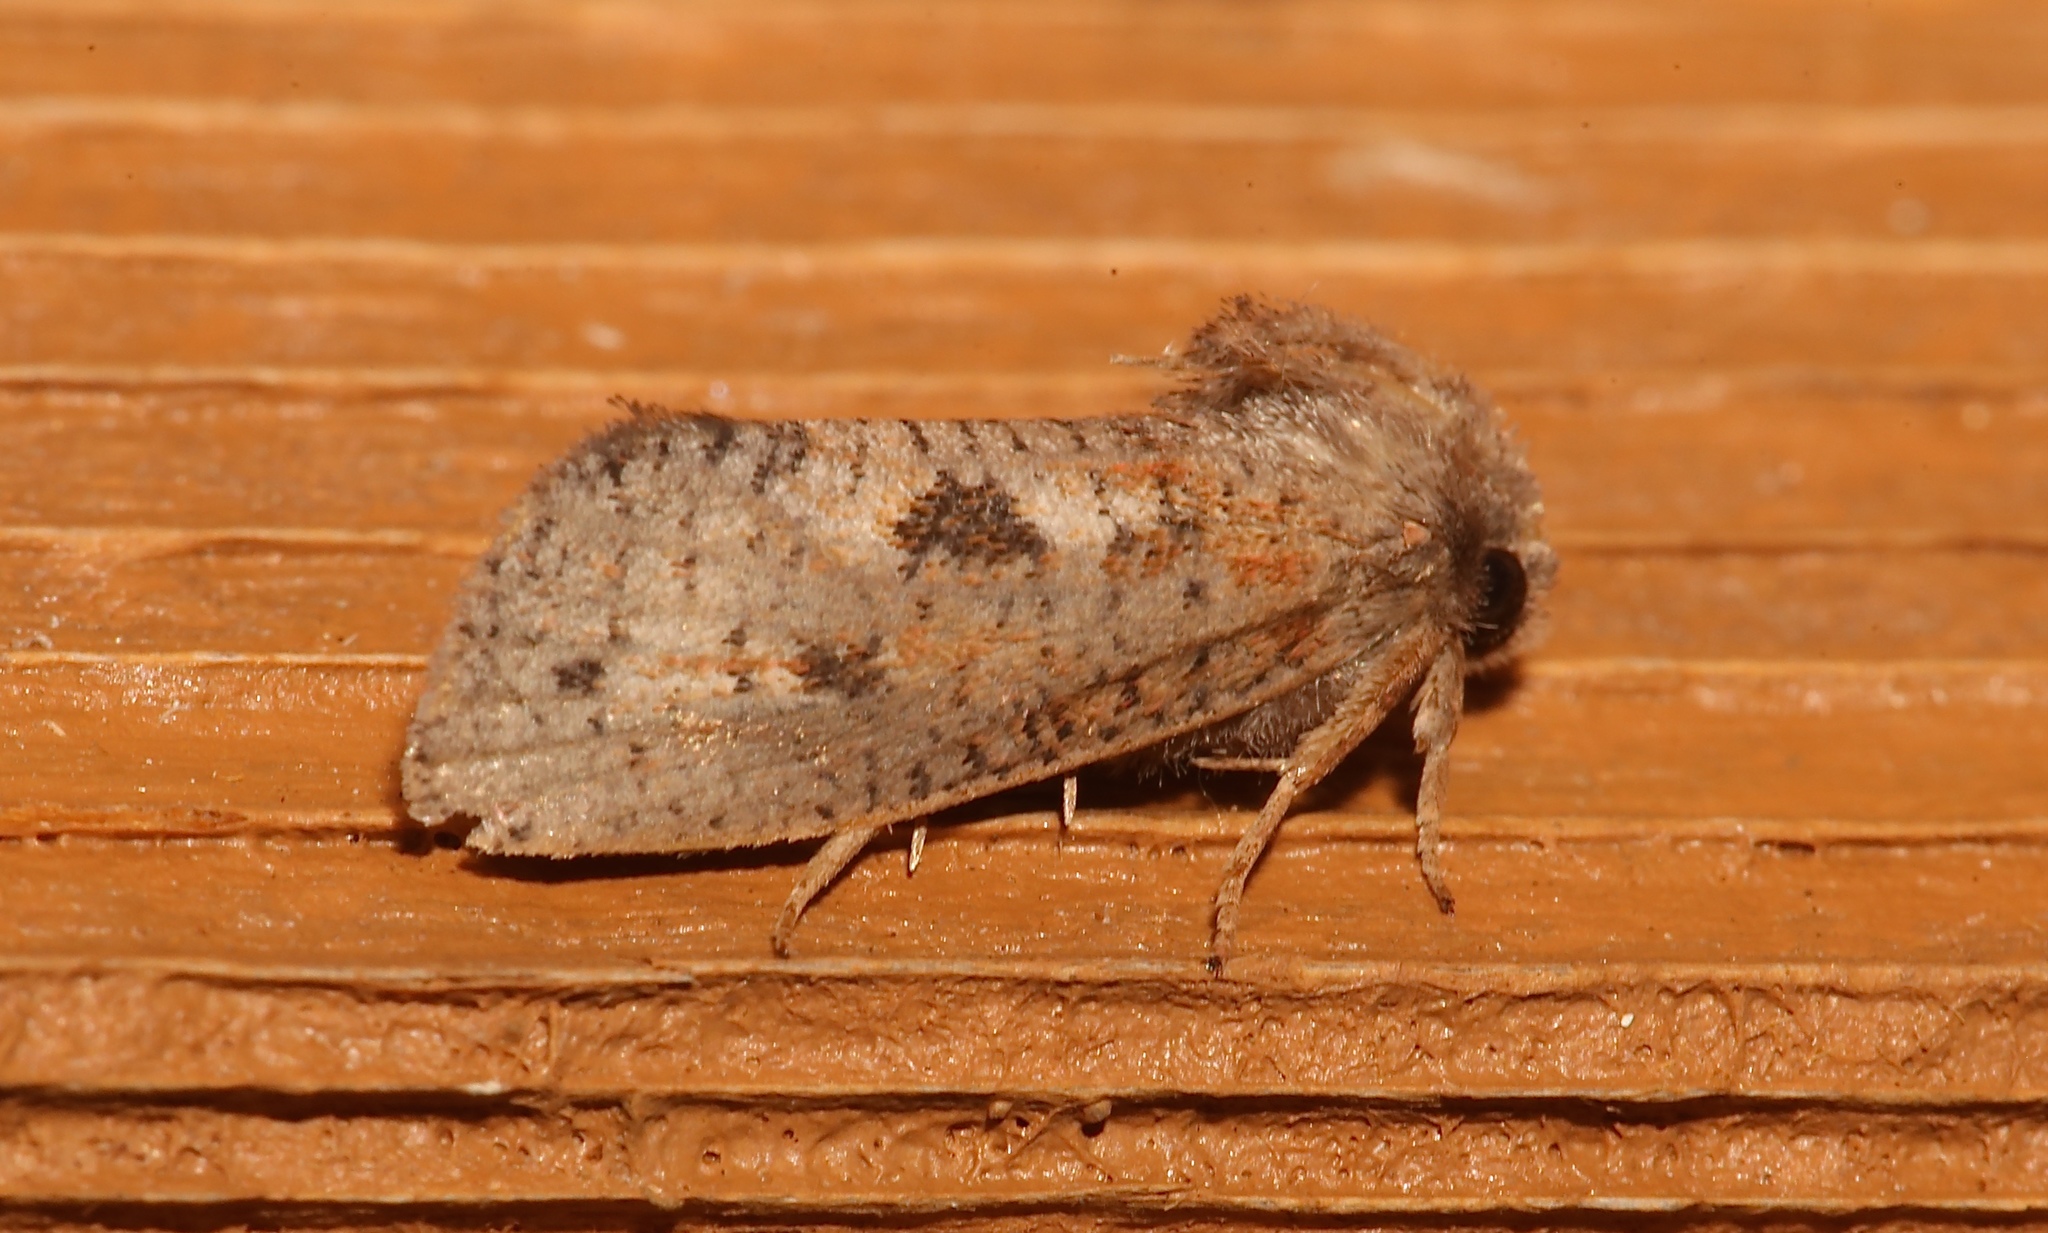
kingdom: Animalia
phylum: Arthropoda
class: Insecta
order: Lepidoptera
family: Tineidae
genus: Acrolophus
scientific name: Acrolophus plumifrontella
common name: Eastern grass tubeworm moth
